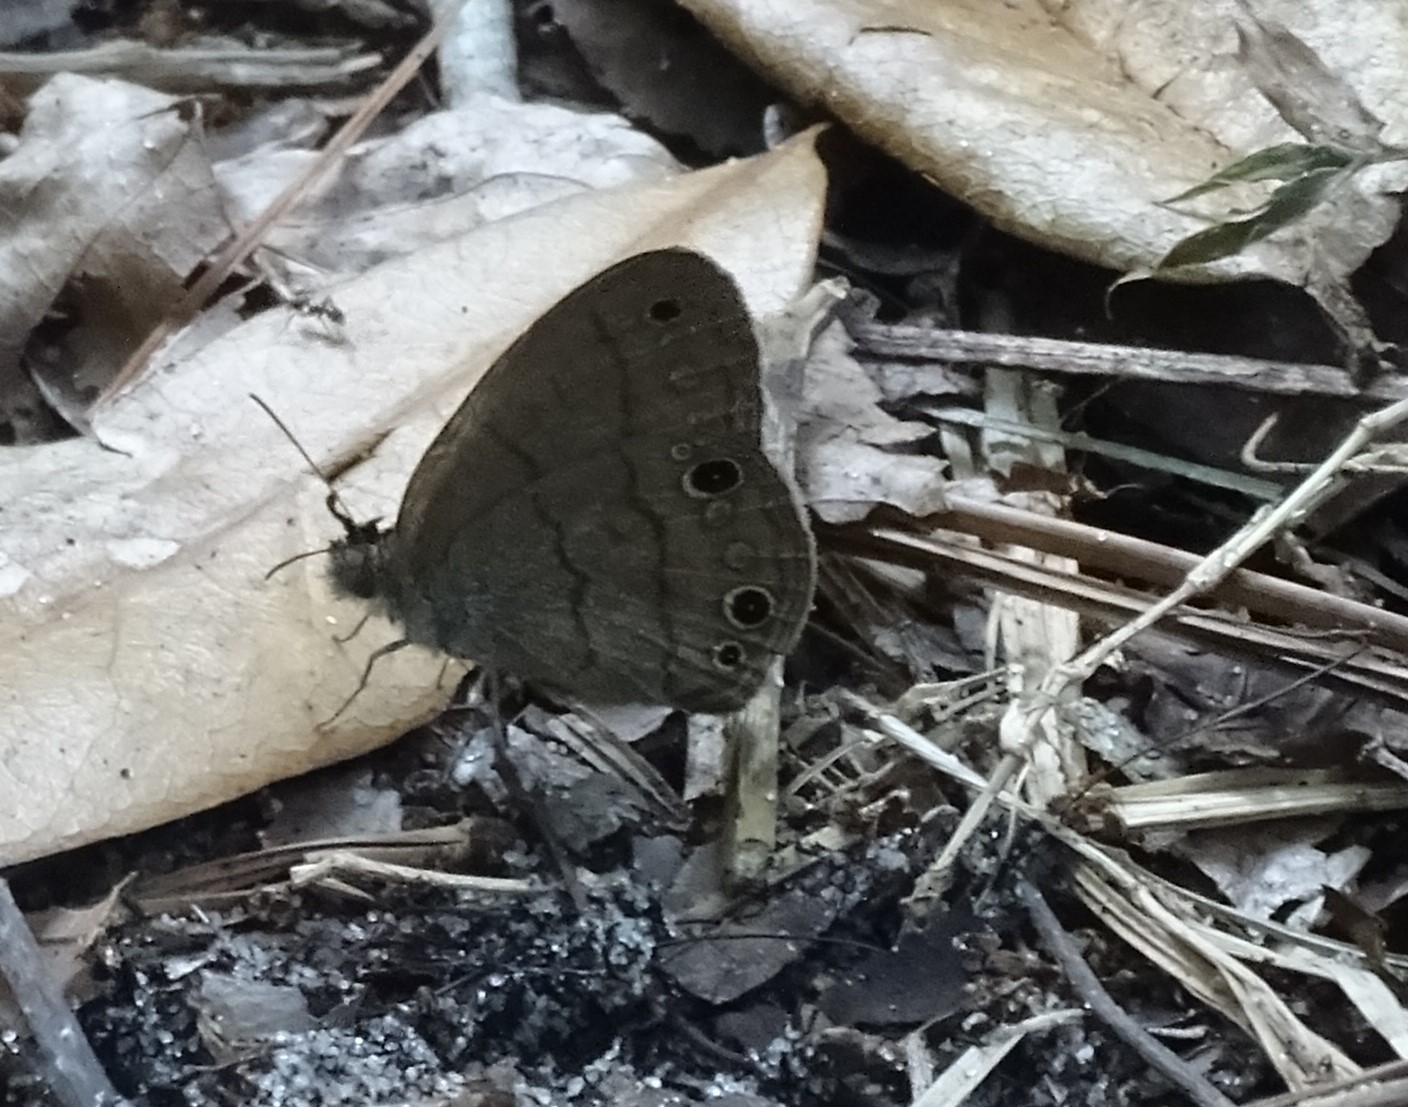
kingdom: Animalia
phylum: Arthropoda
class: Insecta
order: Lepidoptera
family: Nymphalidae
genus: Hermeuptychia
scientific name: Hermeuptychia hermes
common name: Hermes satyr
